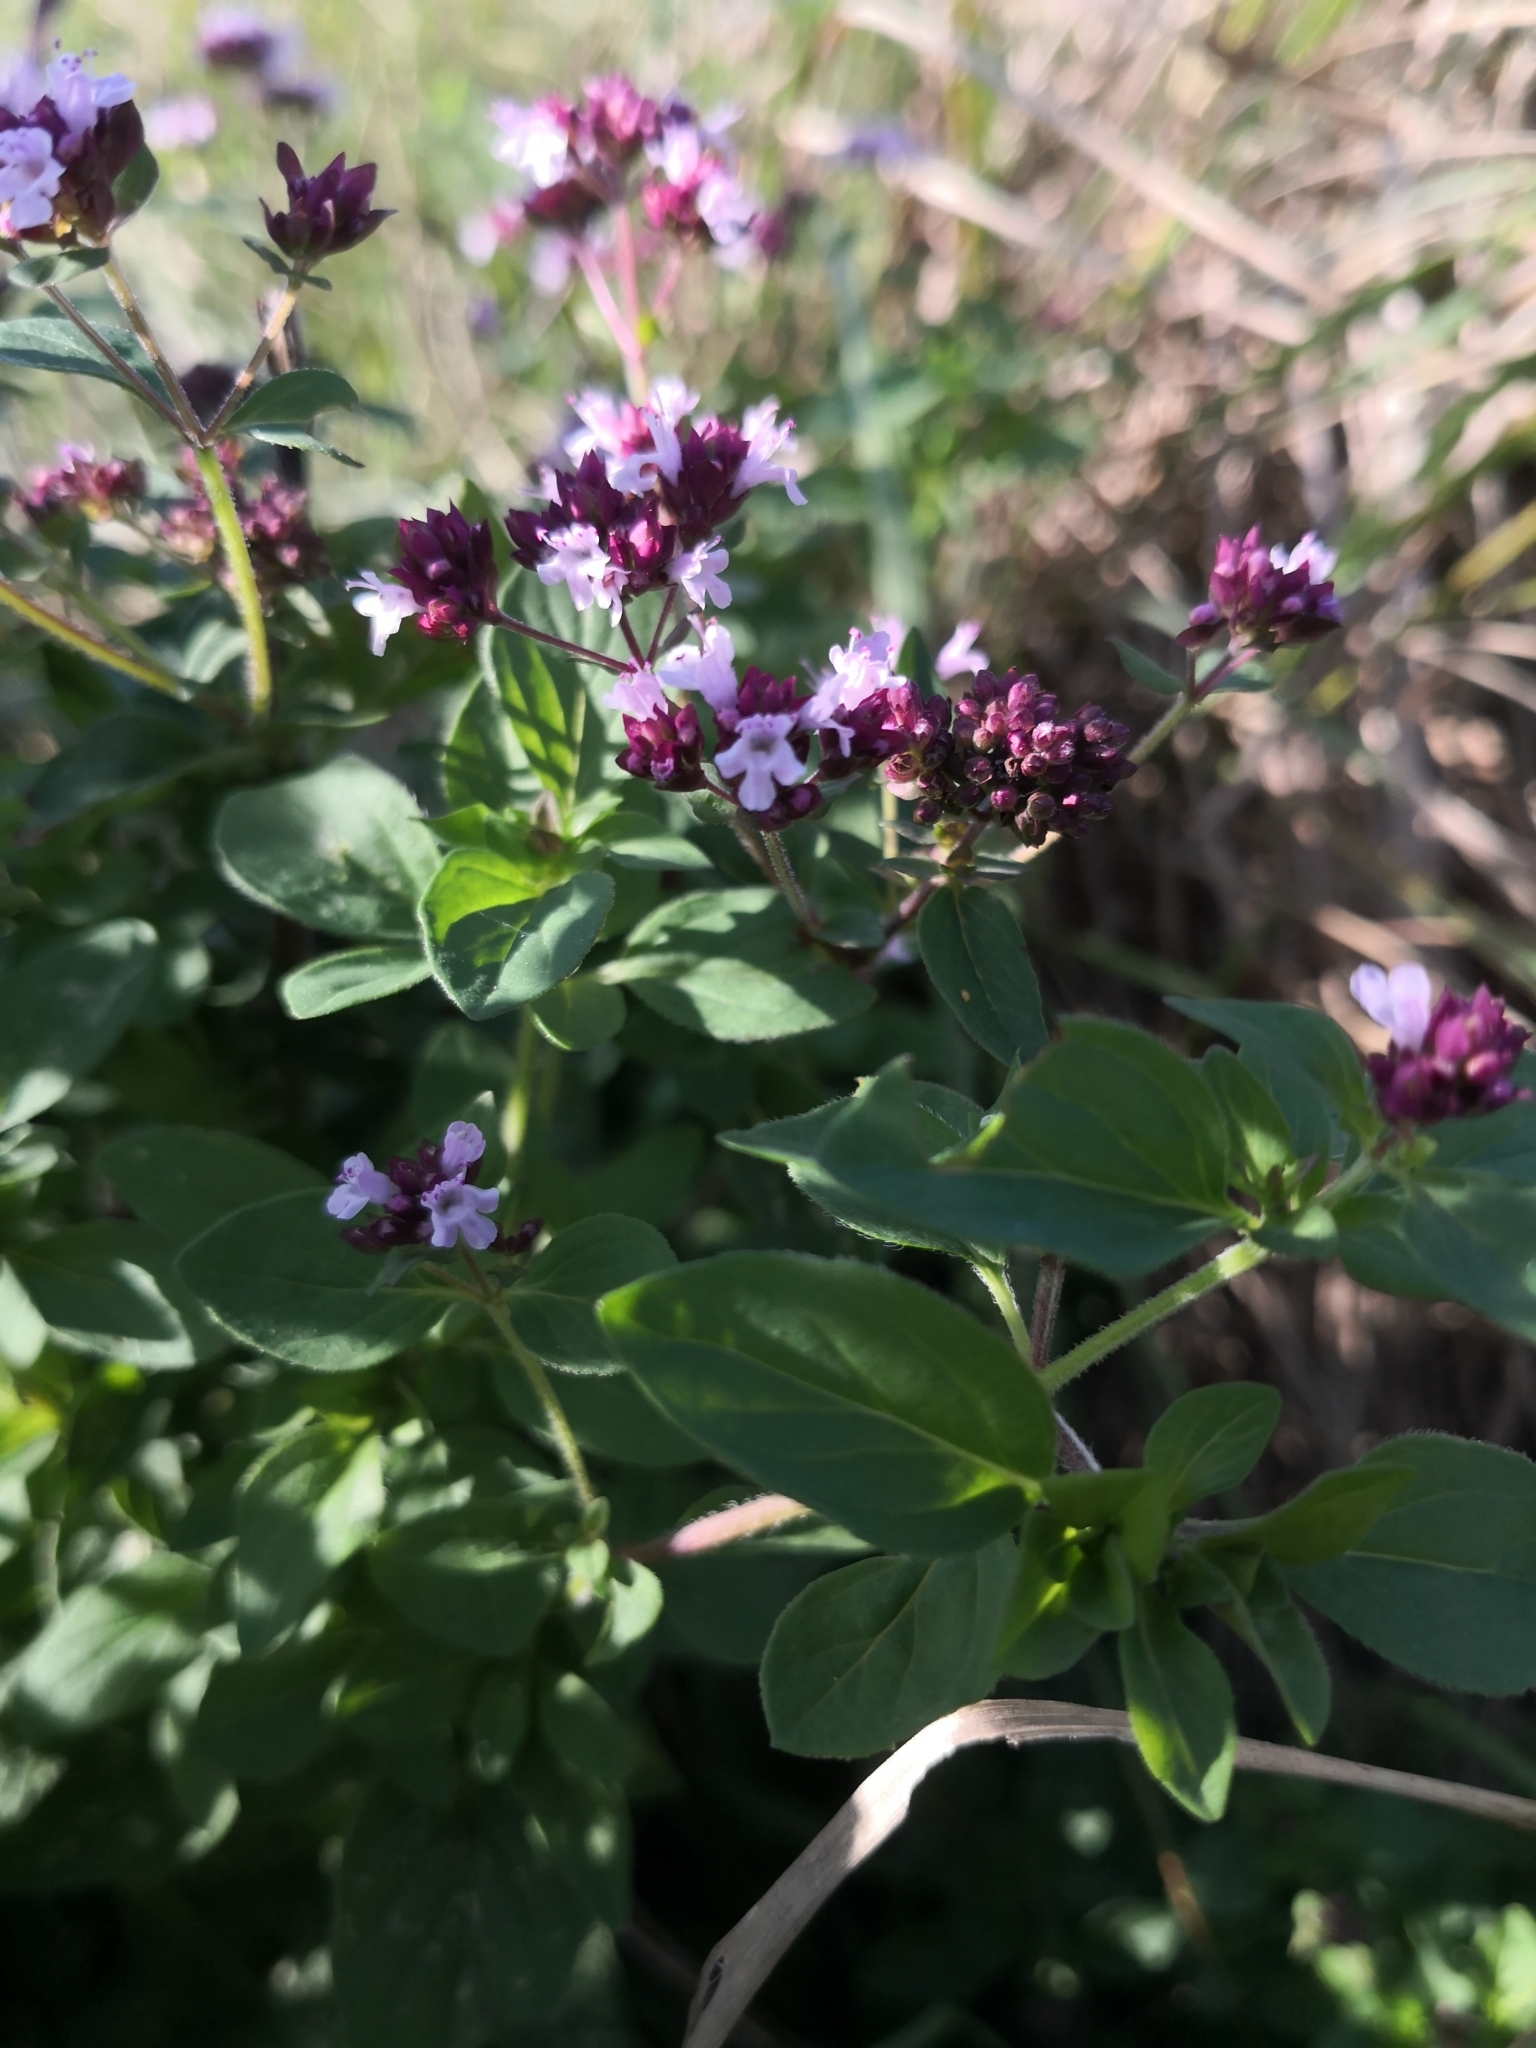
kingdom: Plantae
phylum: Tracheophyta
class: Magnoliopsida
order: Lamiales
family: Lamiaceae
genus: Origanum
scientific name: Origanum vulgare
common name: Wild marjoram
